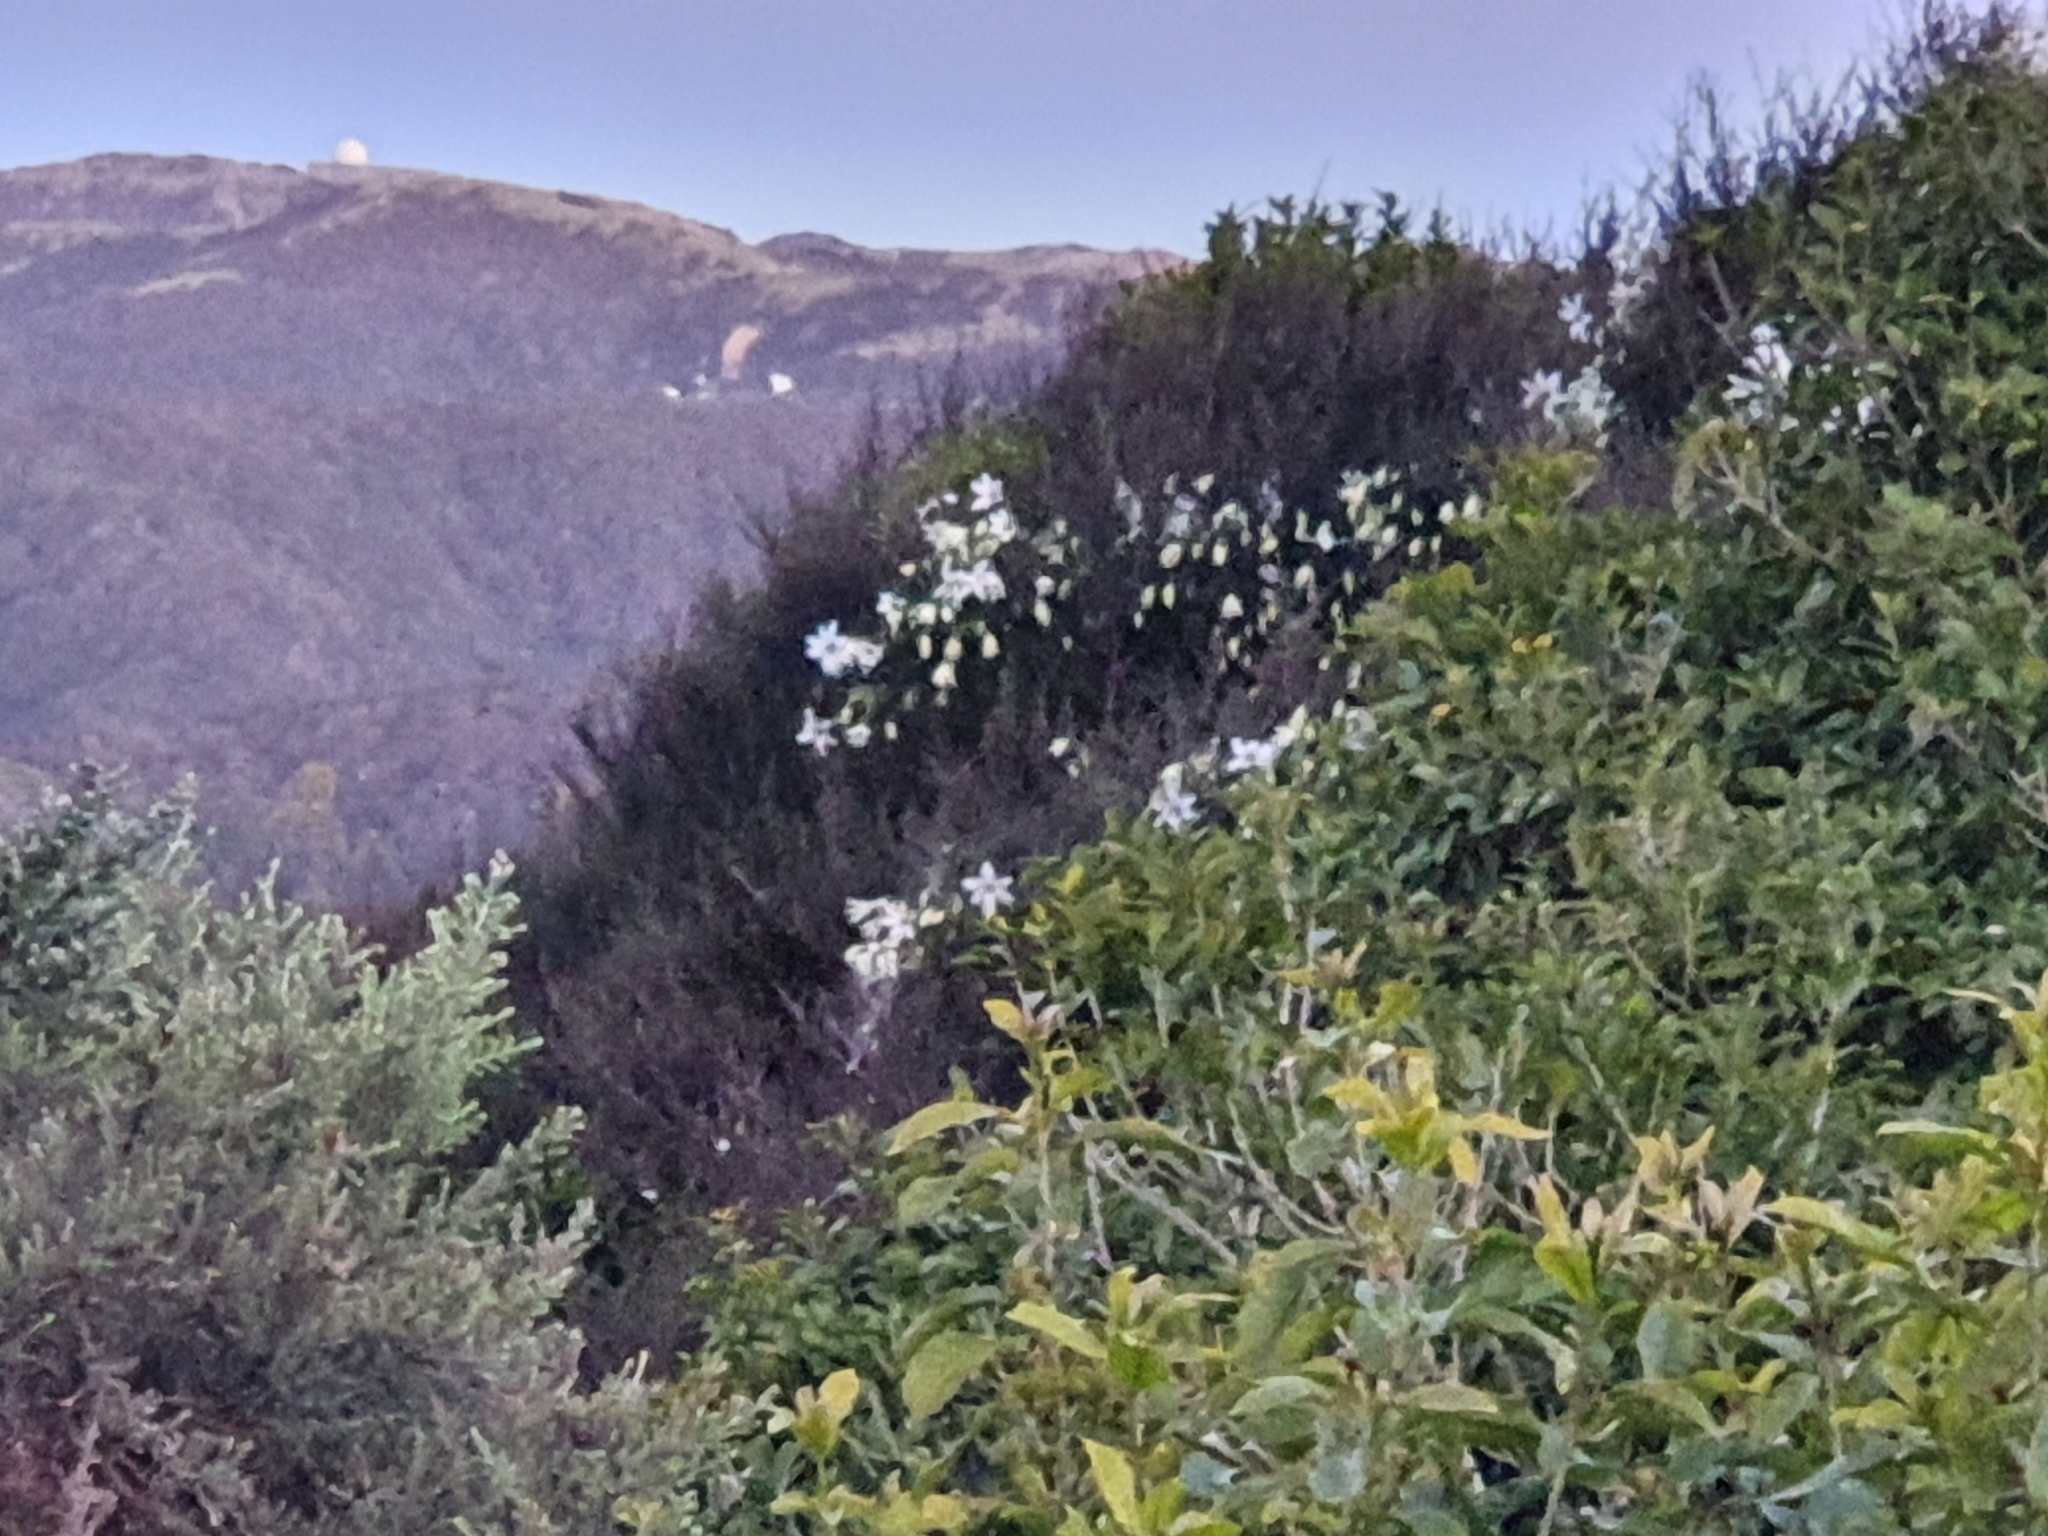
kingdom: Plantae
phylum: Tracheophyta
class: Magnoliopsida
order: Ranunculales
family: Ranunculaceae
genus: Clematis
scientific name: Clematis paniculata
